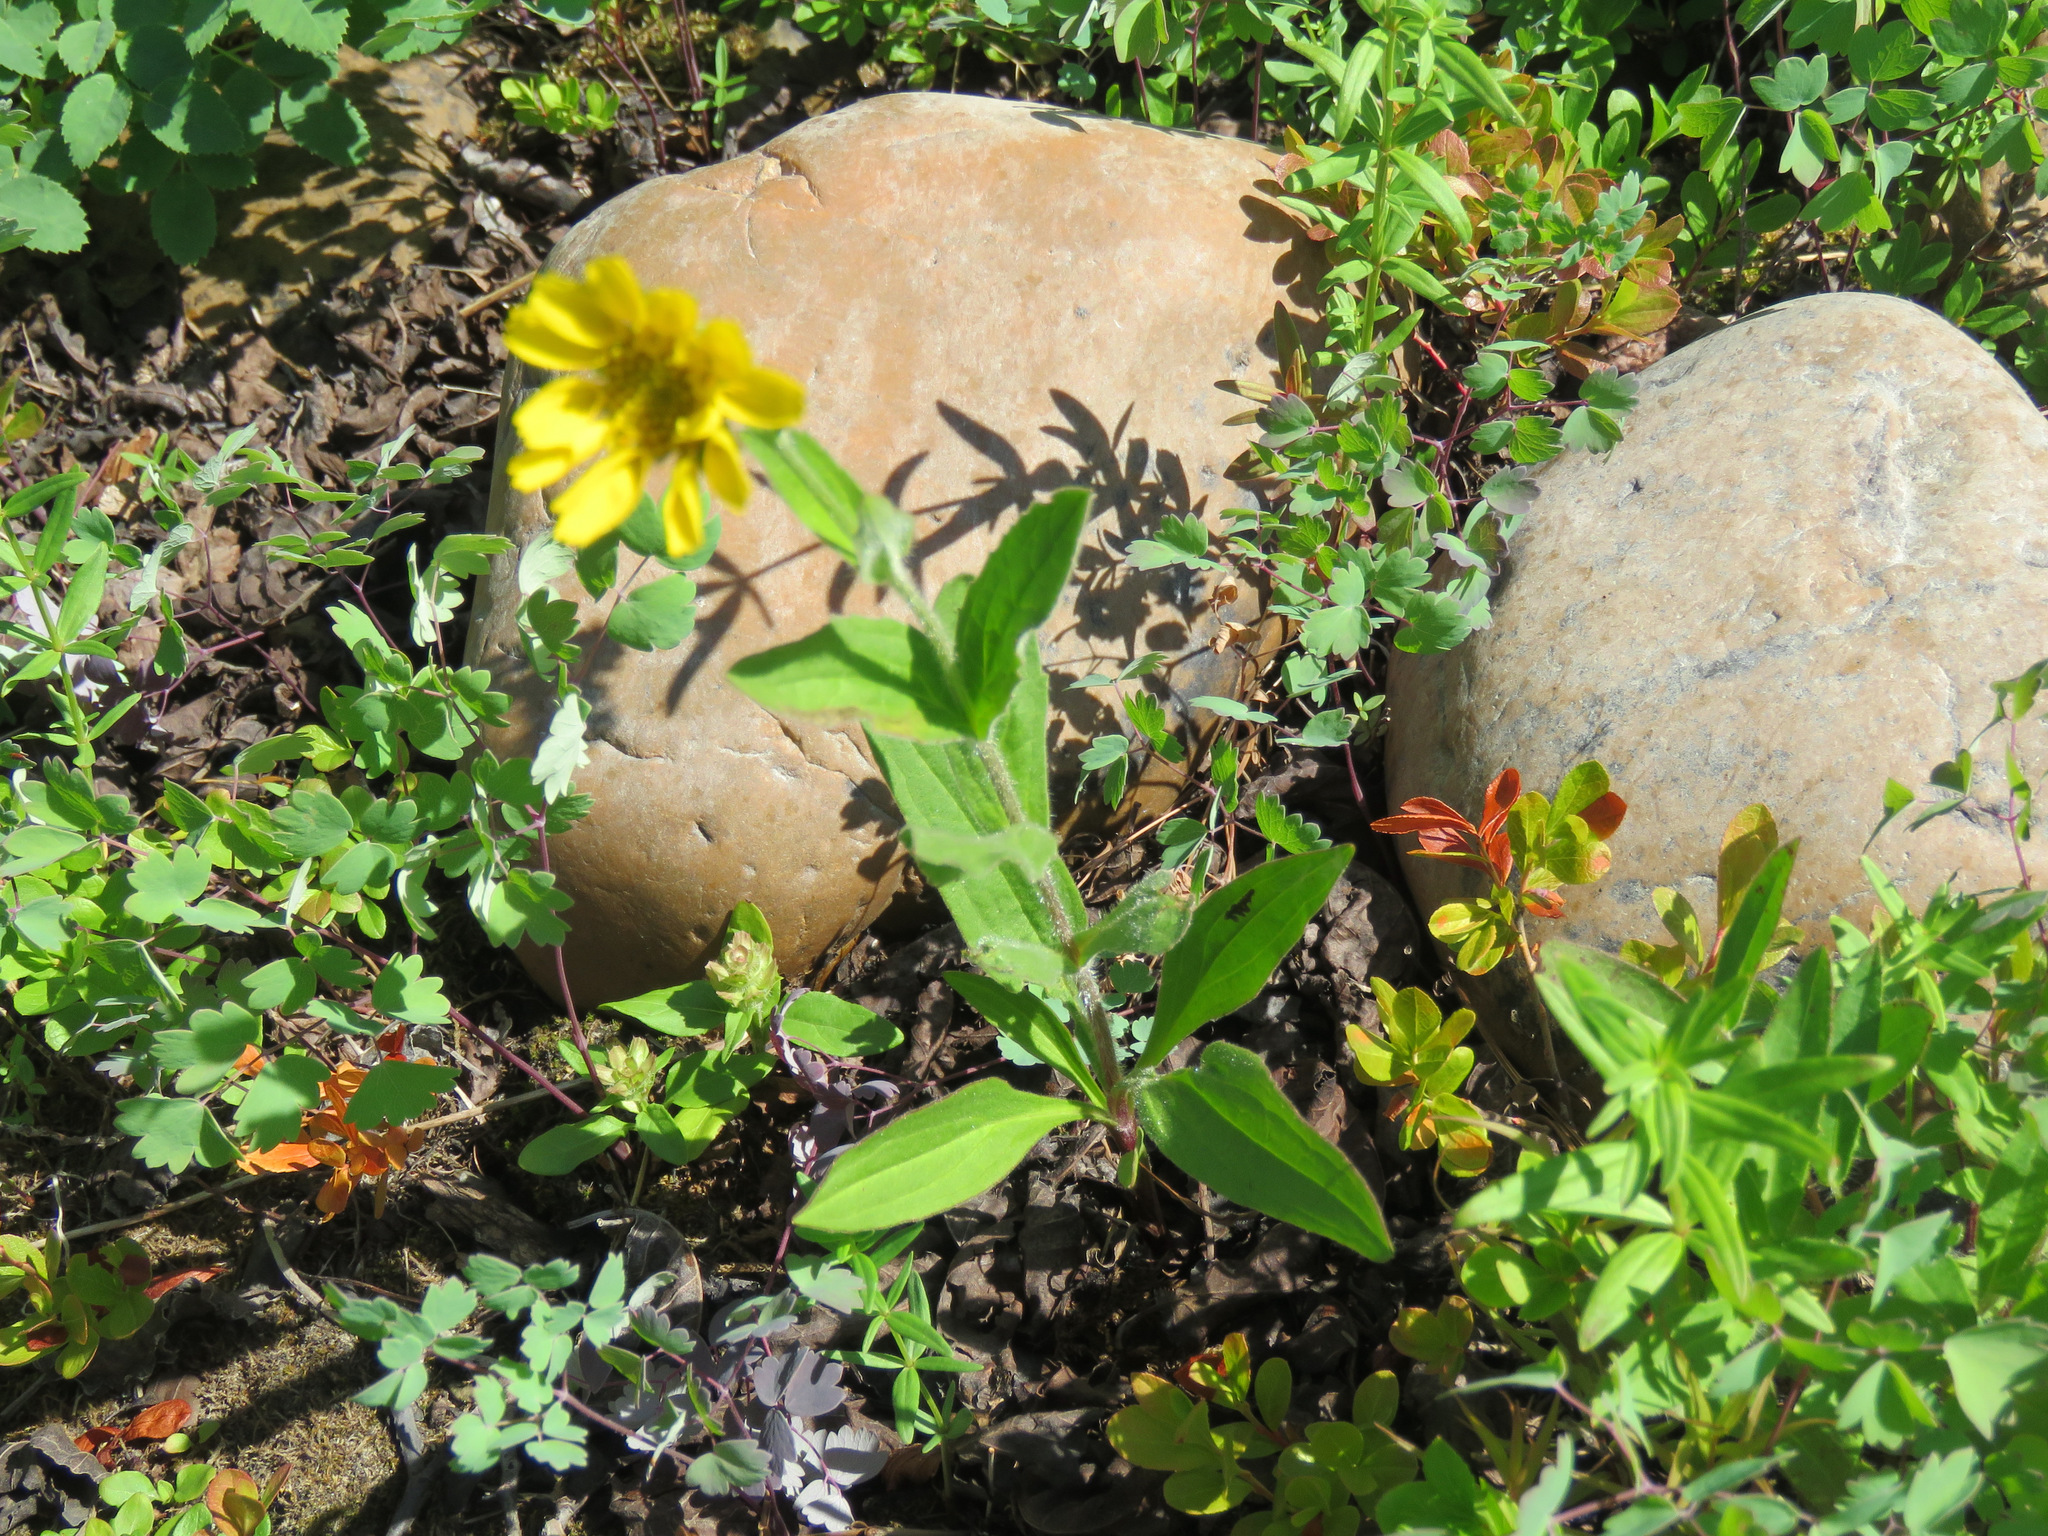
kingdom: Plantae
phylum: Tracheophyta
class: Magnoliopsida
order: Asterales
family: Asteraceae
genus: Arnica
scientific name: Arnica angustifolia
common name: Arctic arnica
